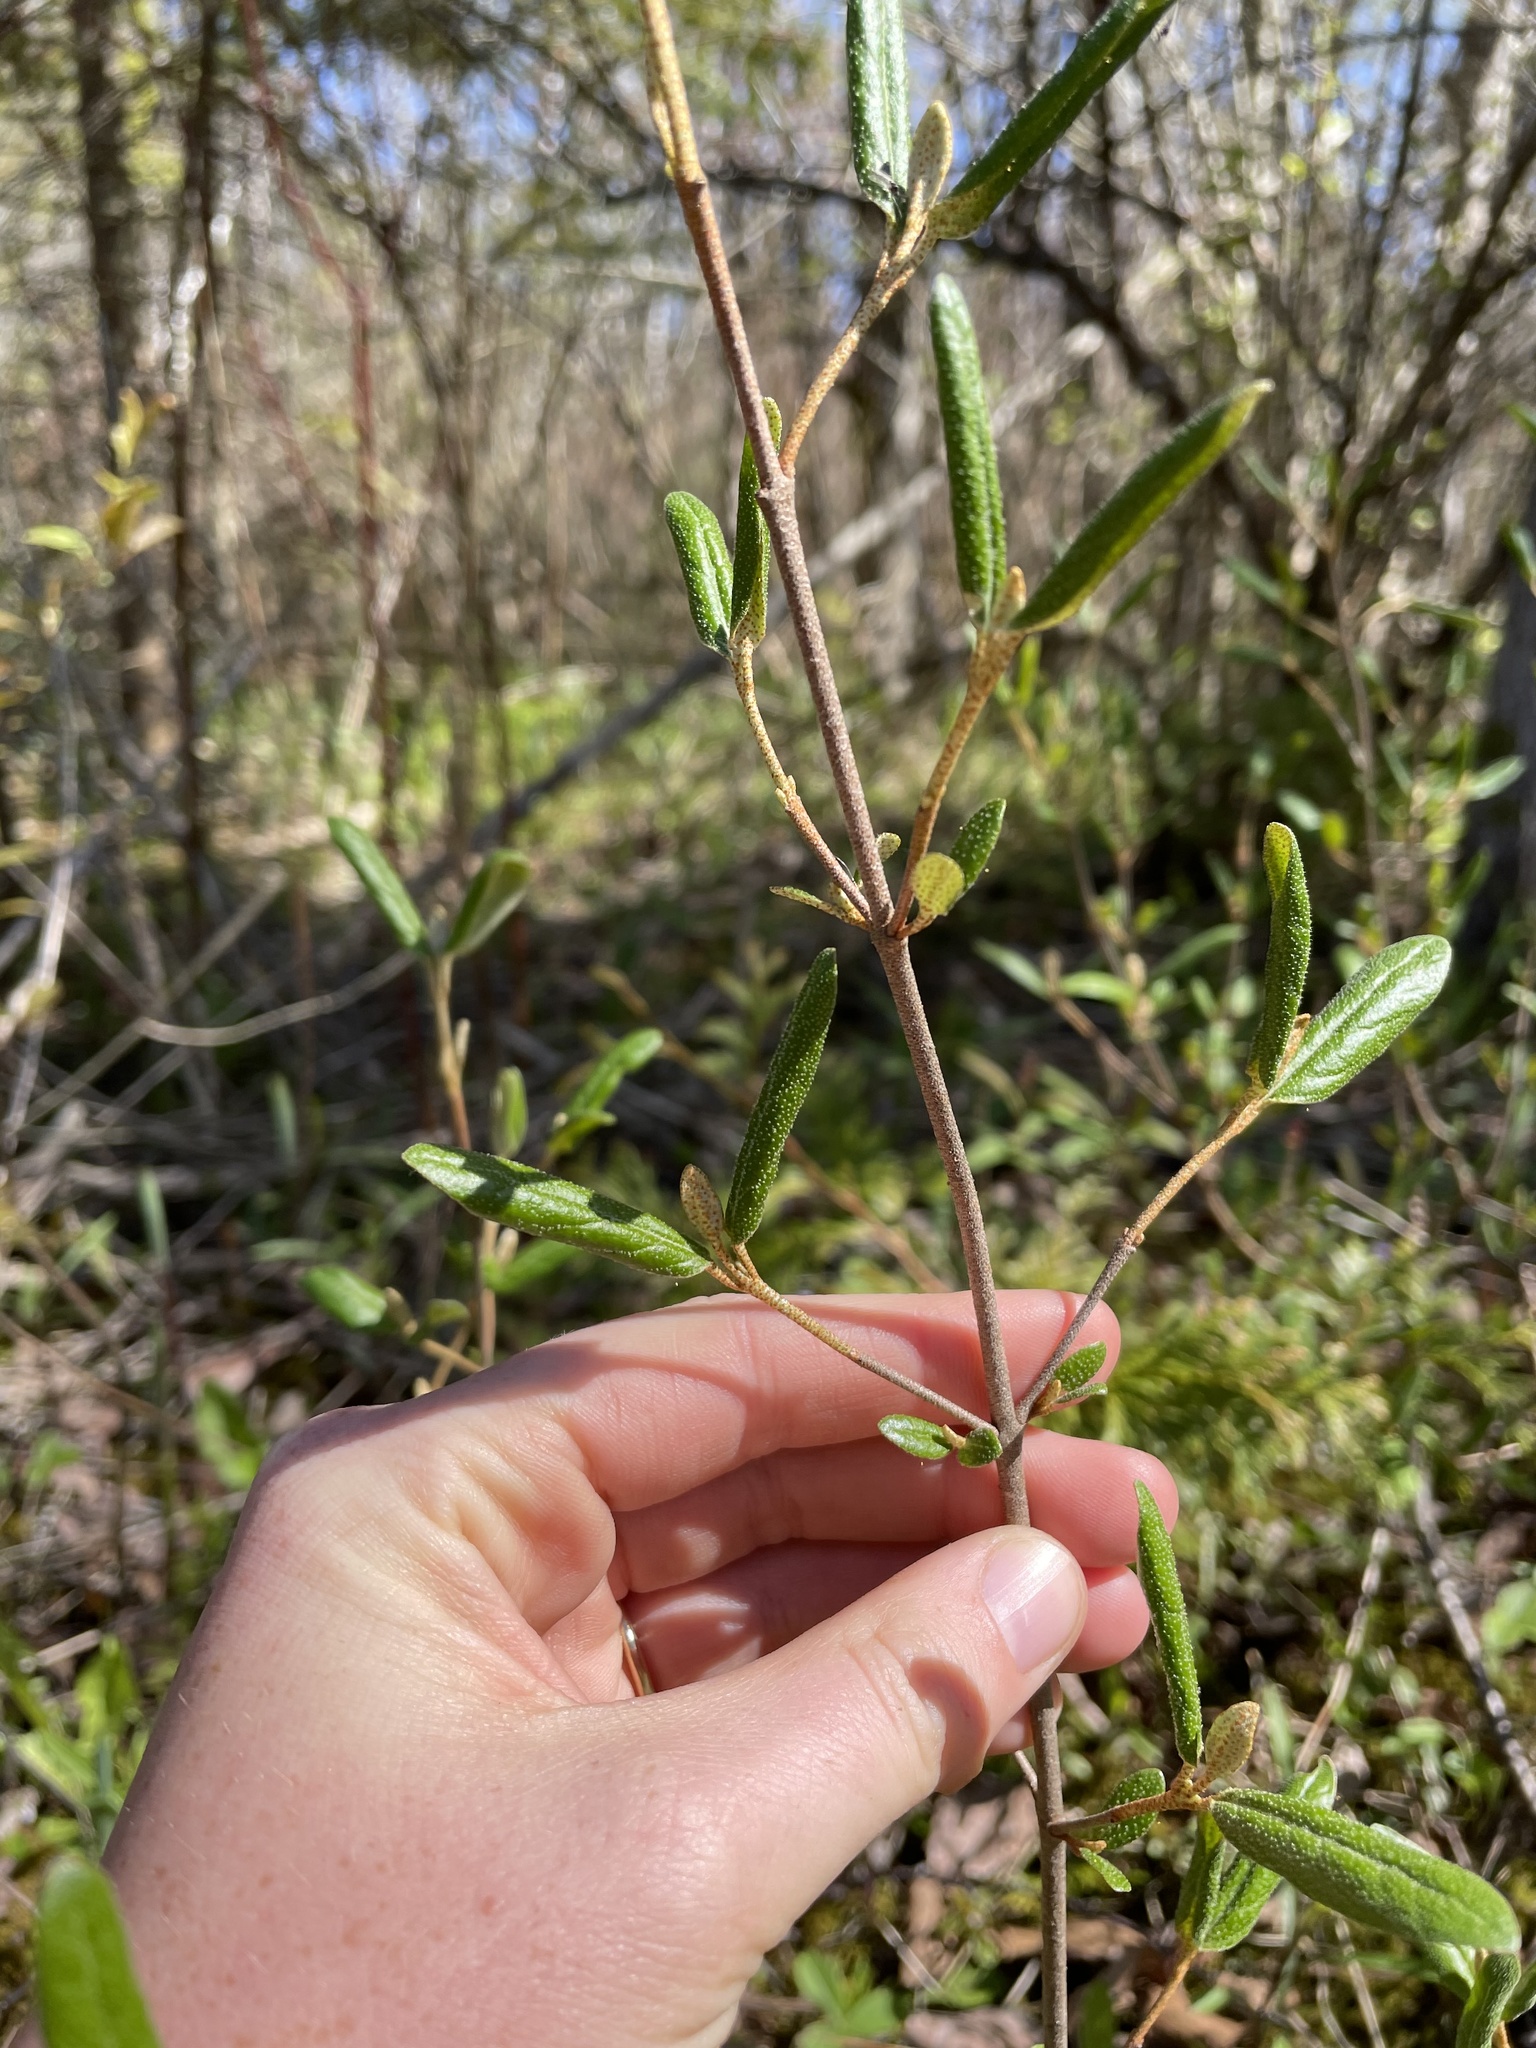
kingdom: Plantae
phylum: Tracheophyta
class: Magnoliopsida
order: Rosales
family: Elaeagnaceae
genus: Shepherdia
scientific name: Shepherdia canadensis
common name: Soapberry
